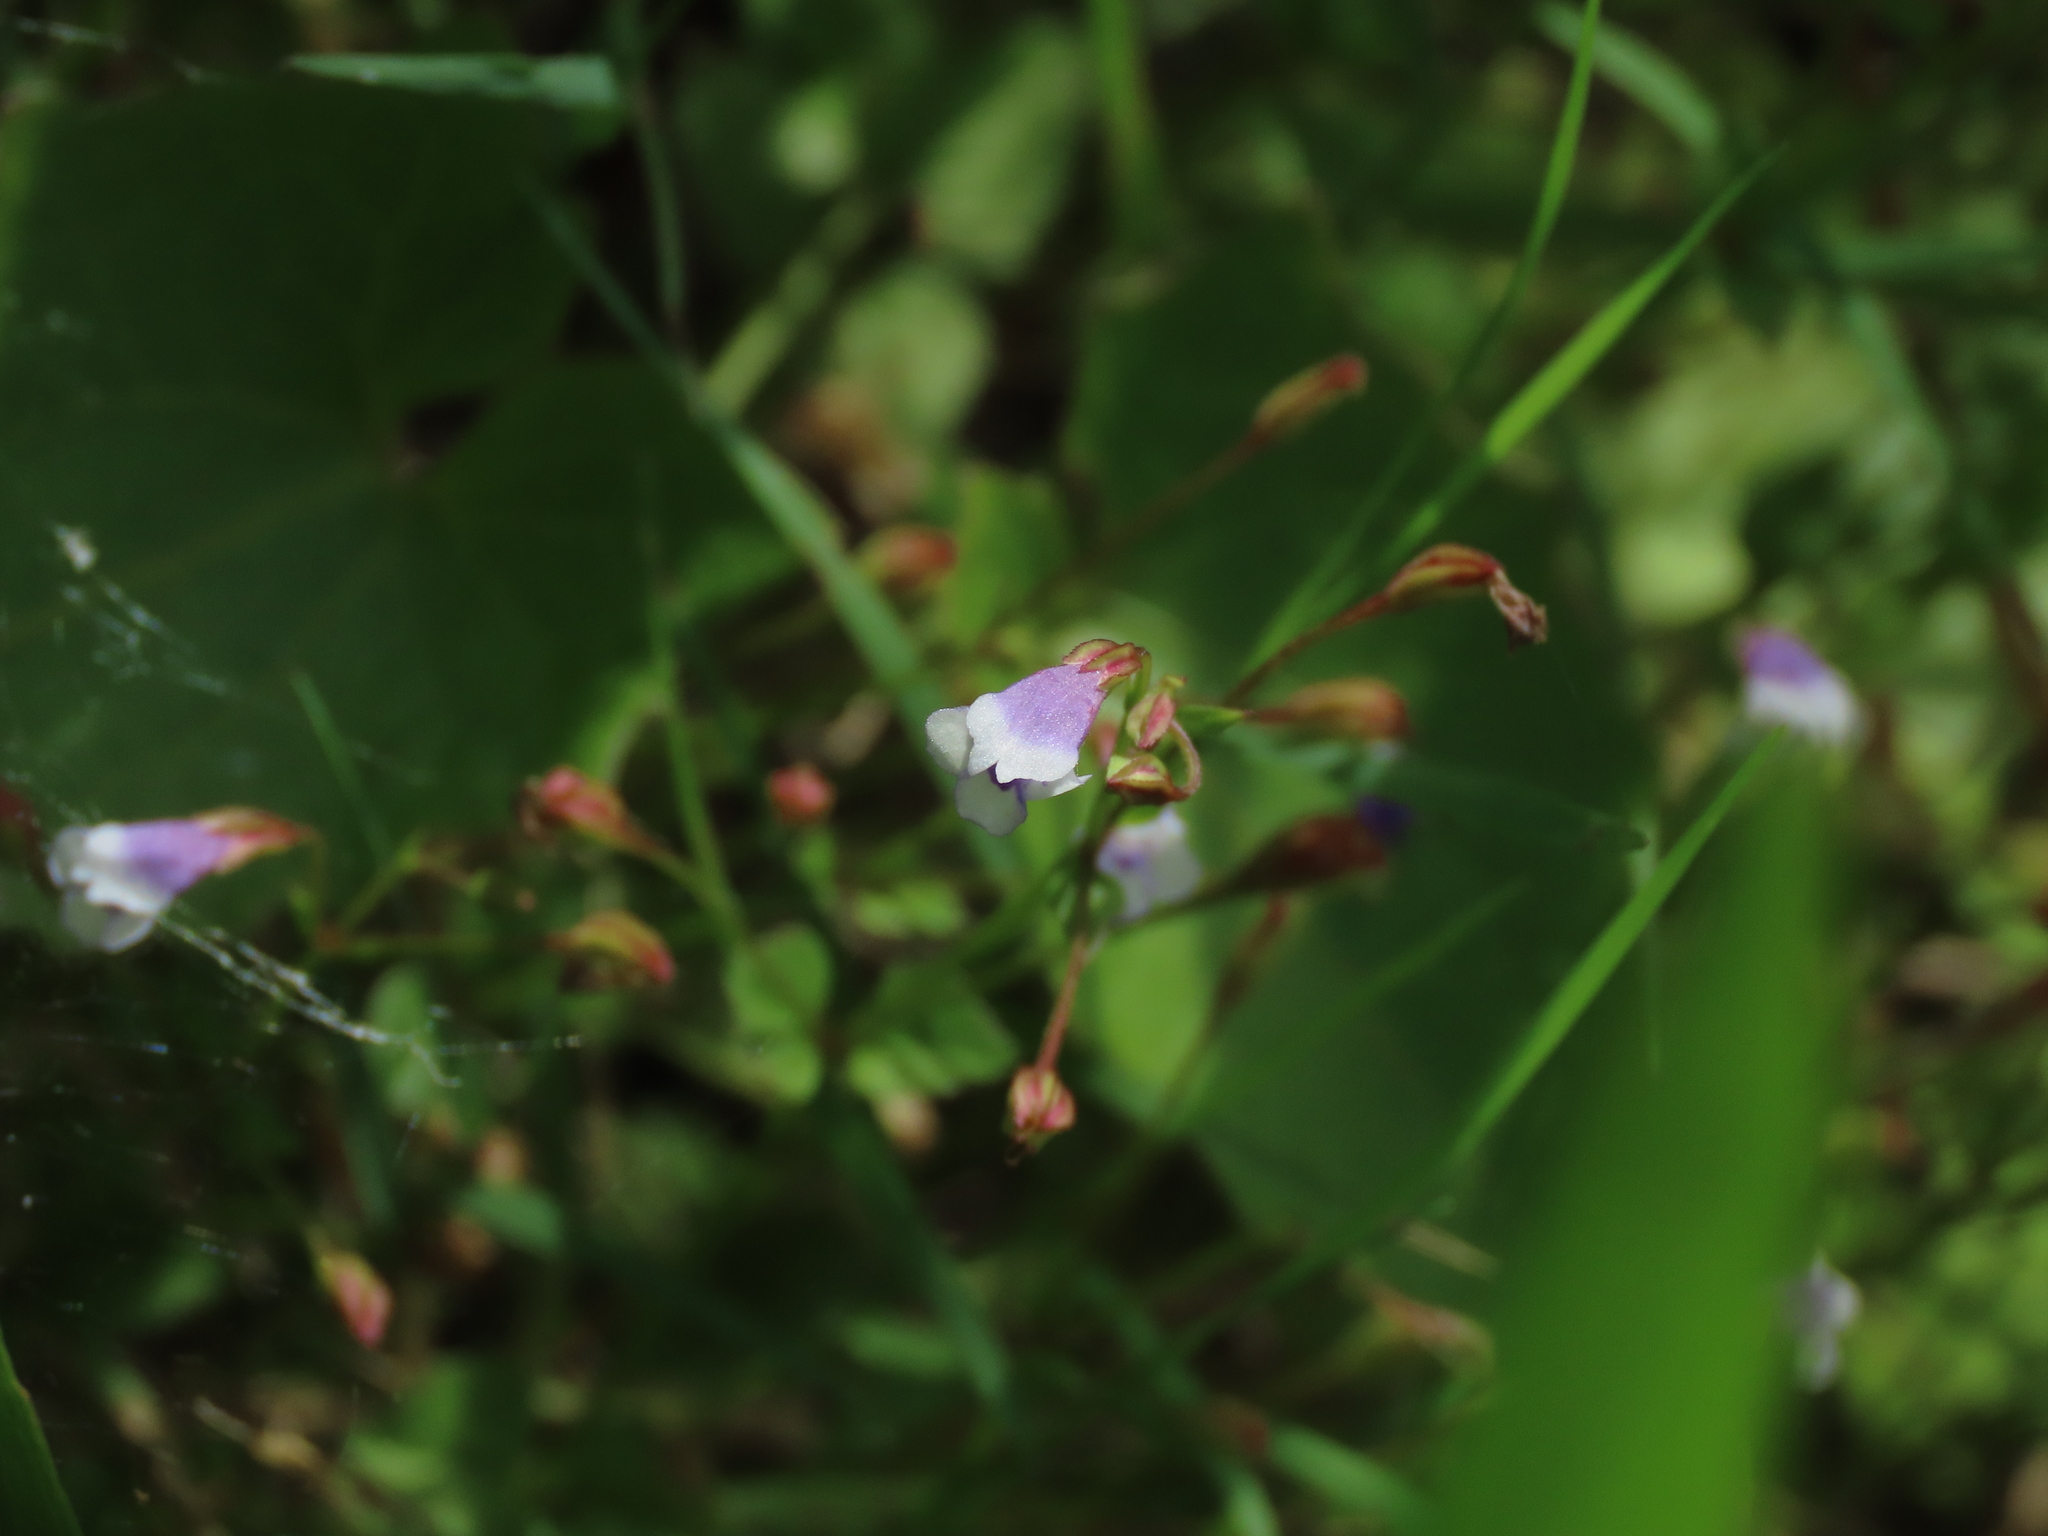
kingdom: Plantae
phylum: Tracheophyta
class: Magnoliopsida
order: Lamiales
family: Linderniaceae
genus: Torenia
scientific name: Torenia crustacea
